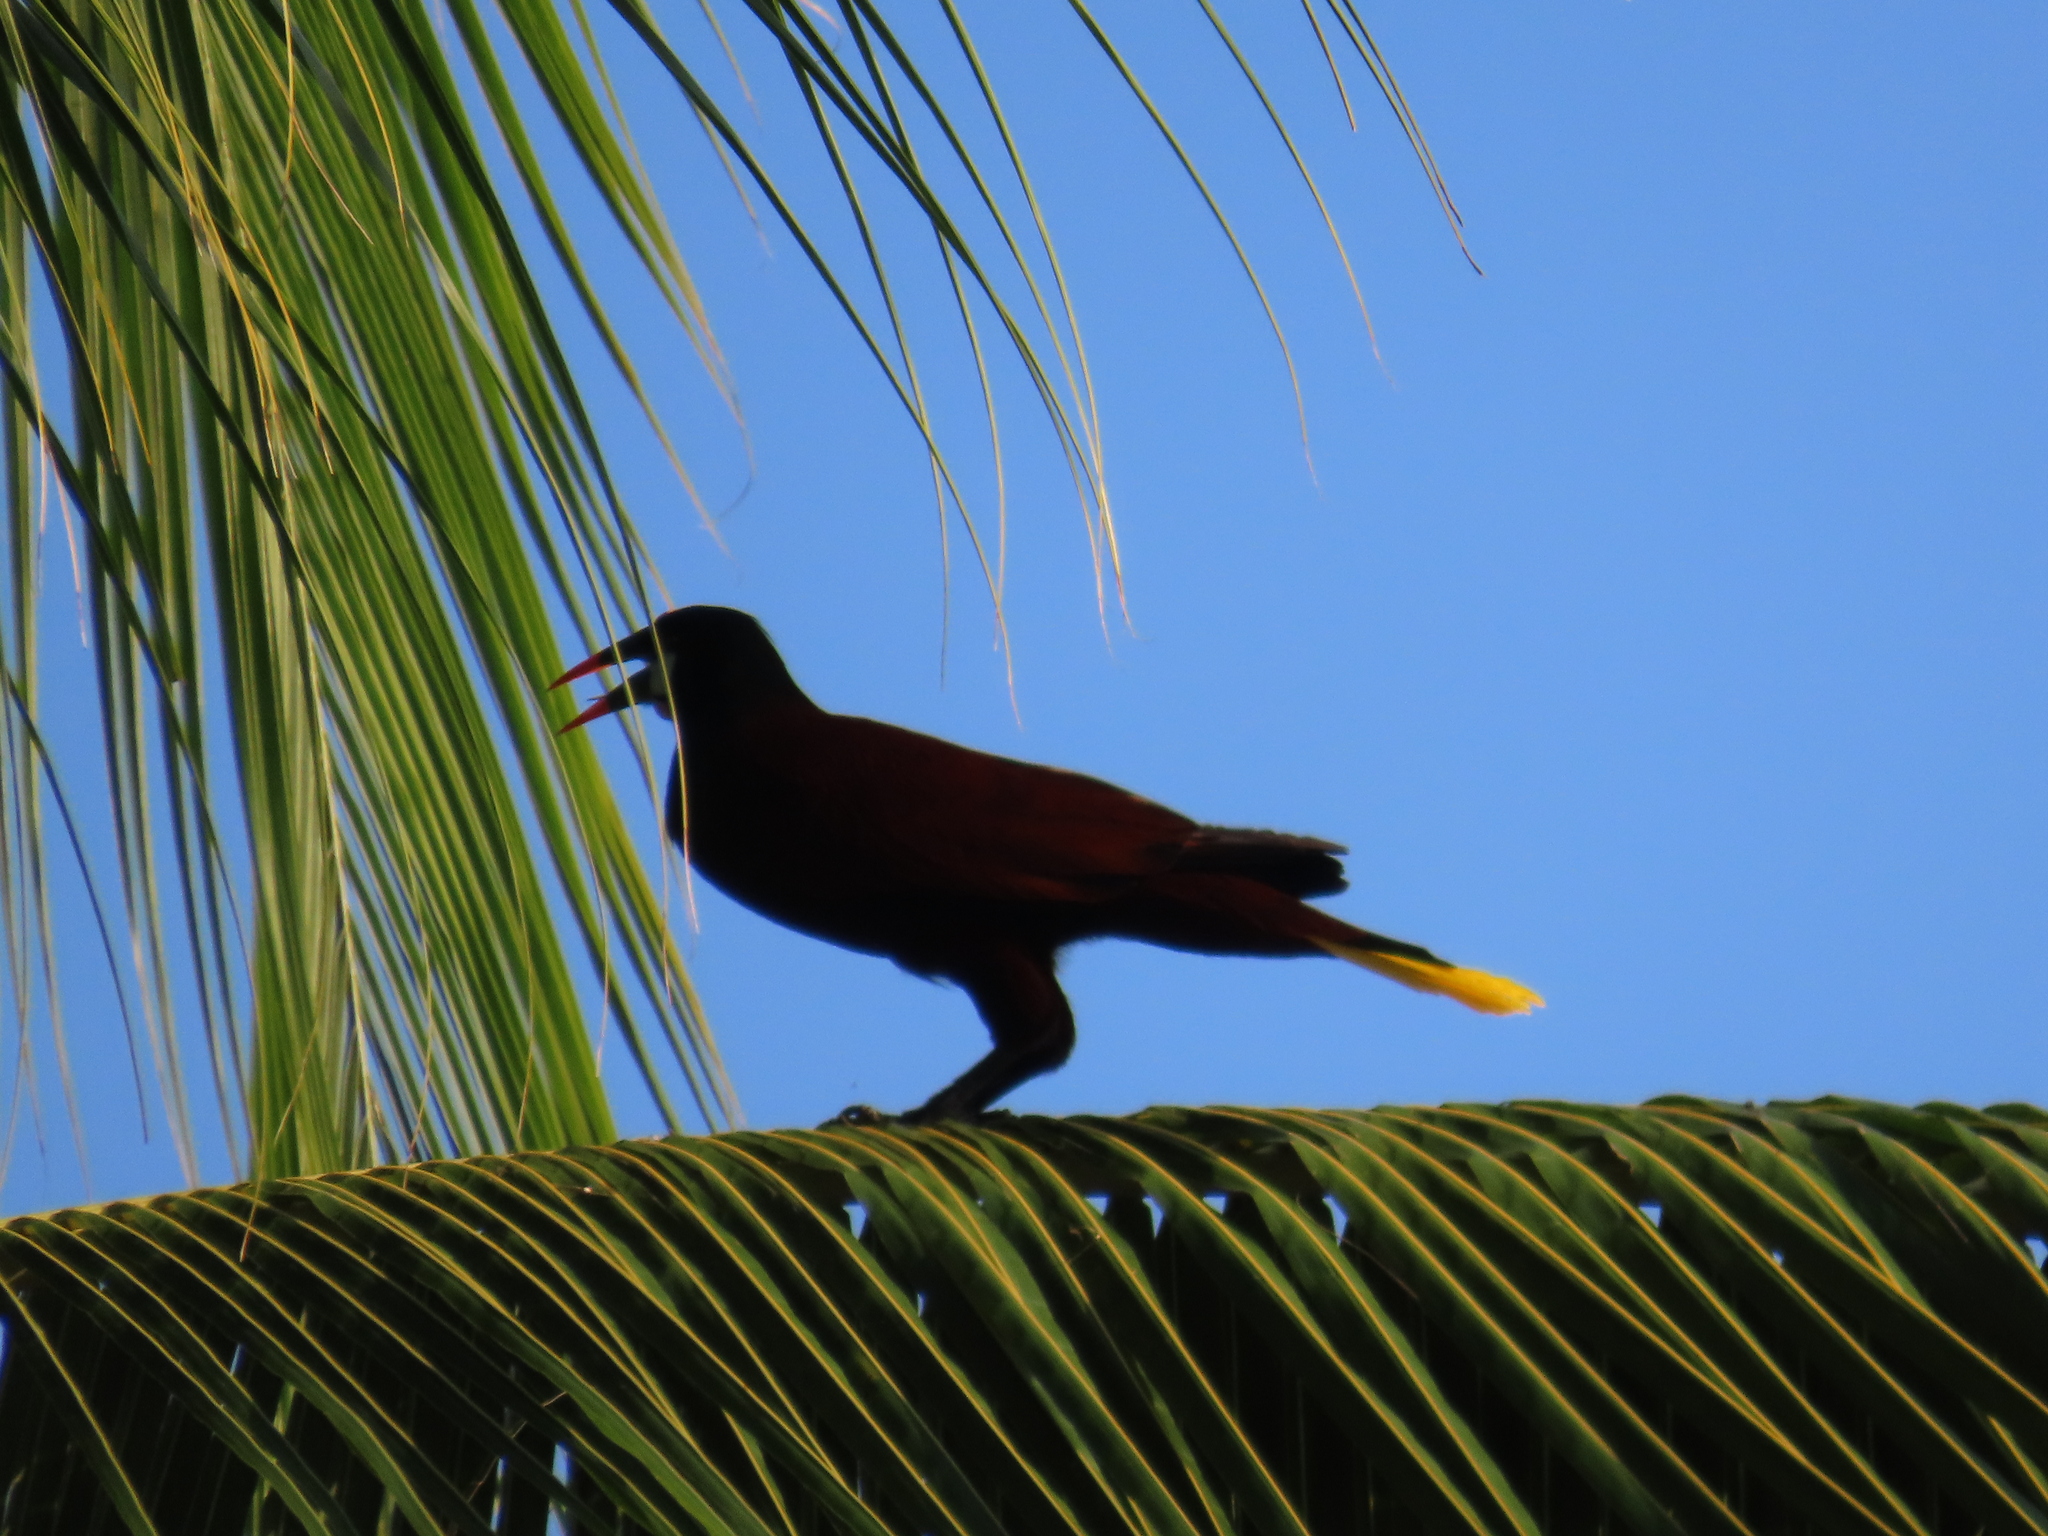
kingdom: Animalia
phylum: Chordata
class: Aves
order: Passeriformes
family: Icteridae
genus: Psarocolius
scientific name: Psarocolius montezuma
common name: Montezuma oropendola
